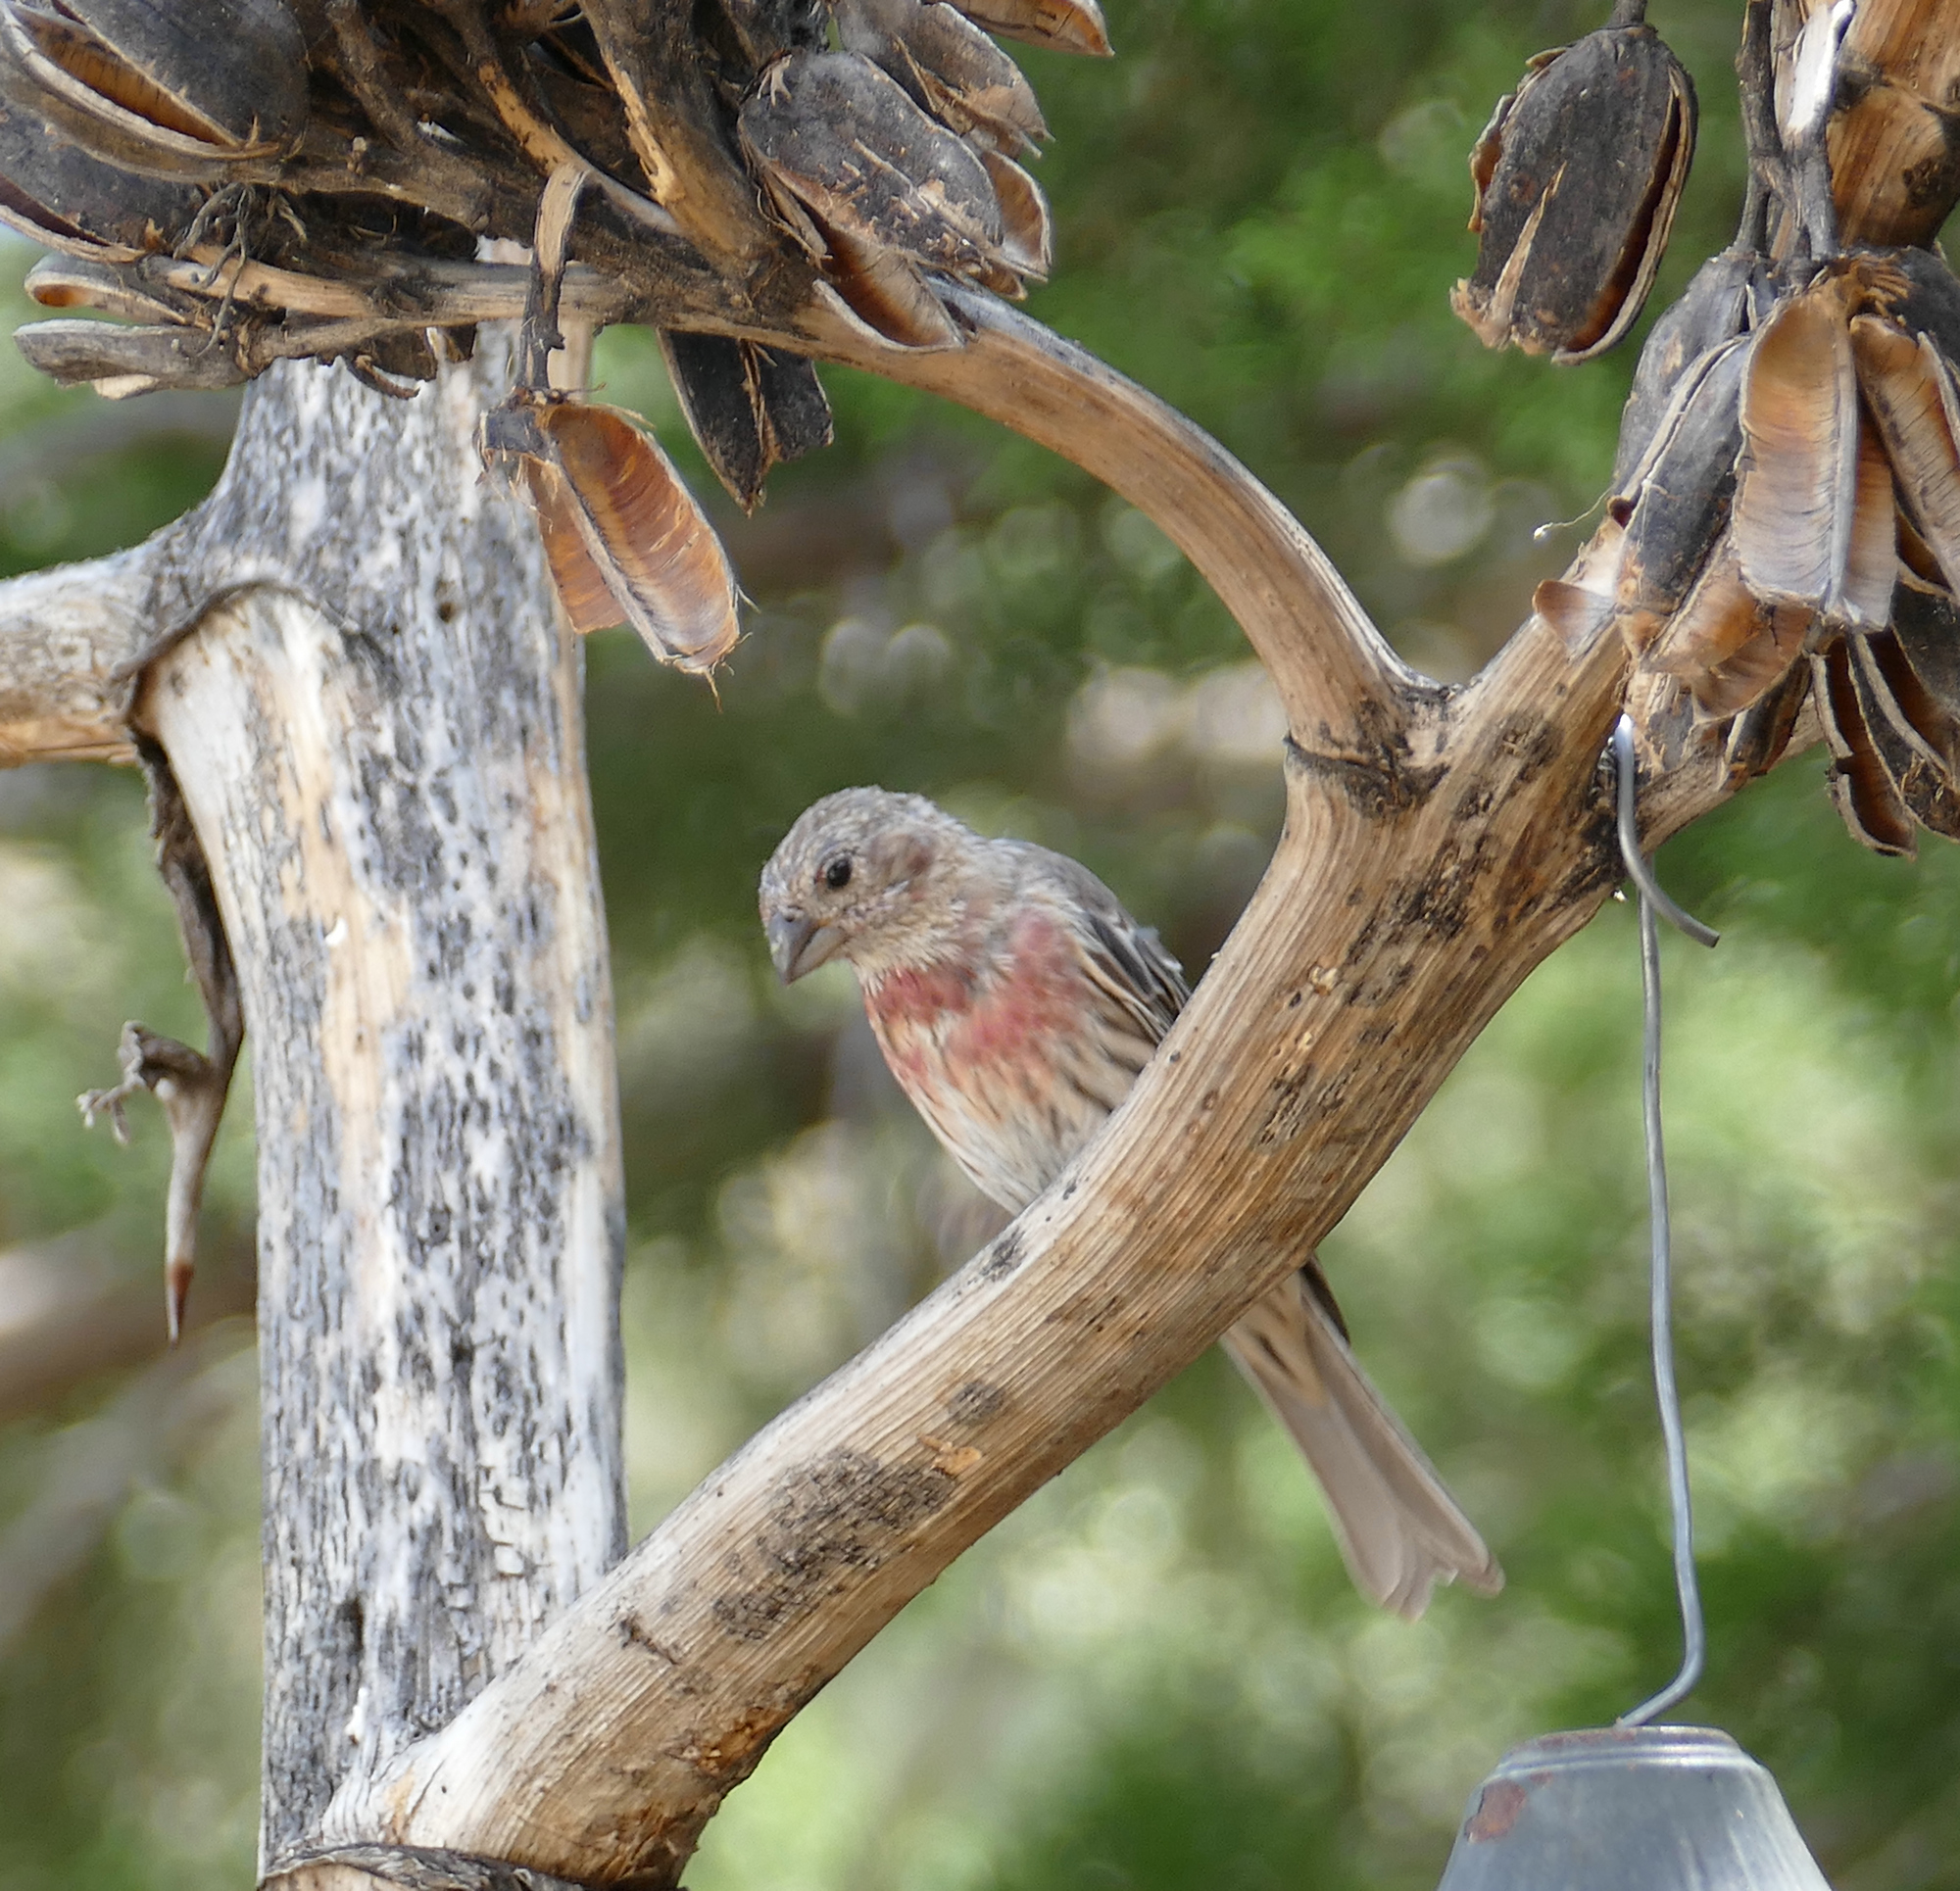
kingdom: Animalia
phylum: Chordata
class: Aves
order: Passeriformes
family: Fringillidae
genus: Haemorhous
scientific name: Haemorhous mexicanus
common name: House finch
